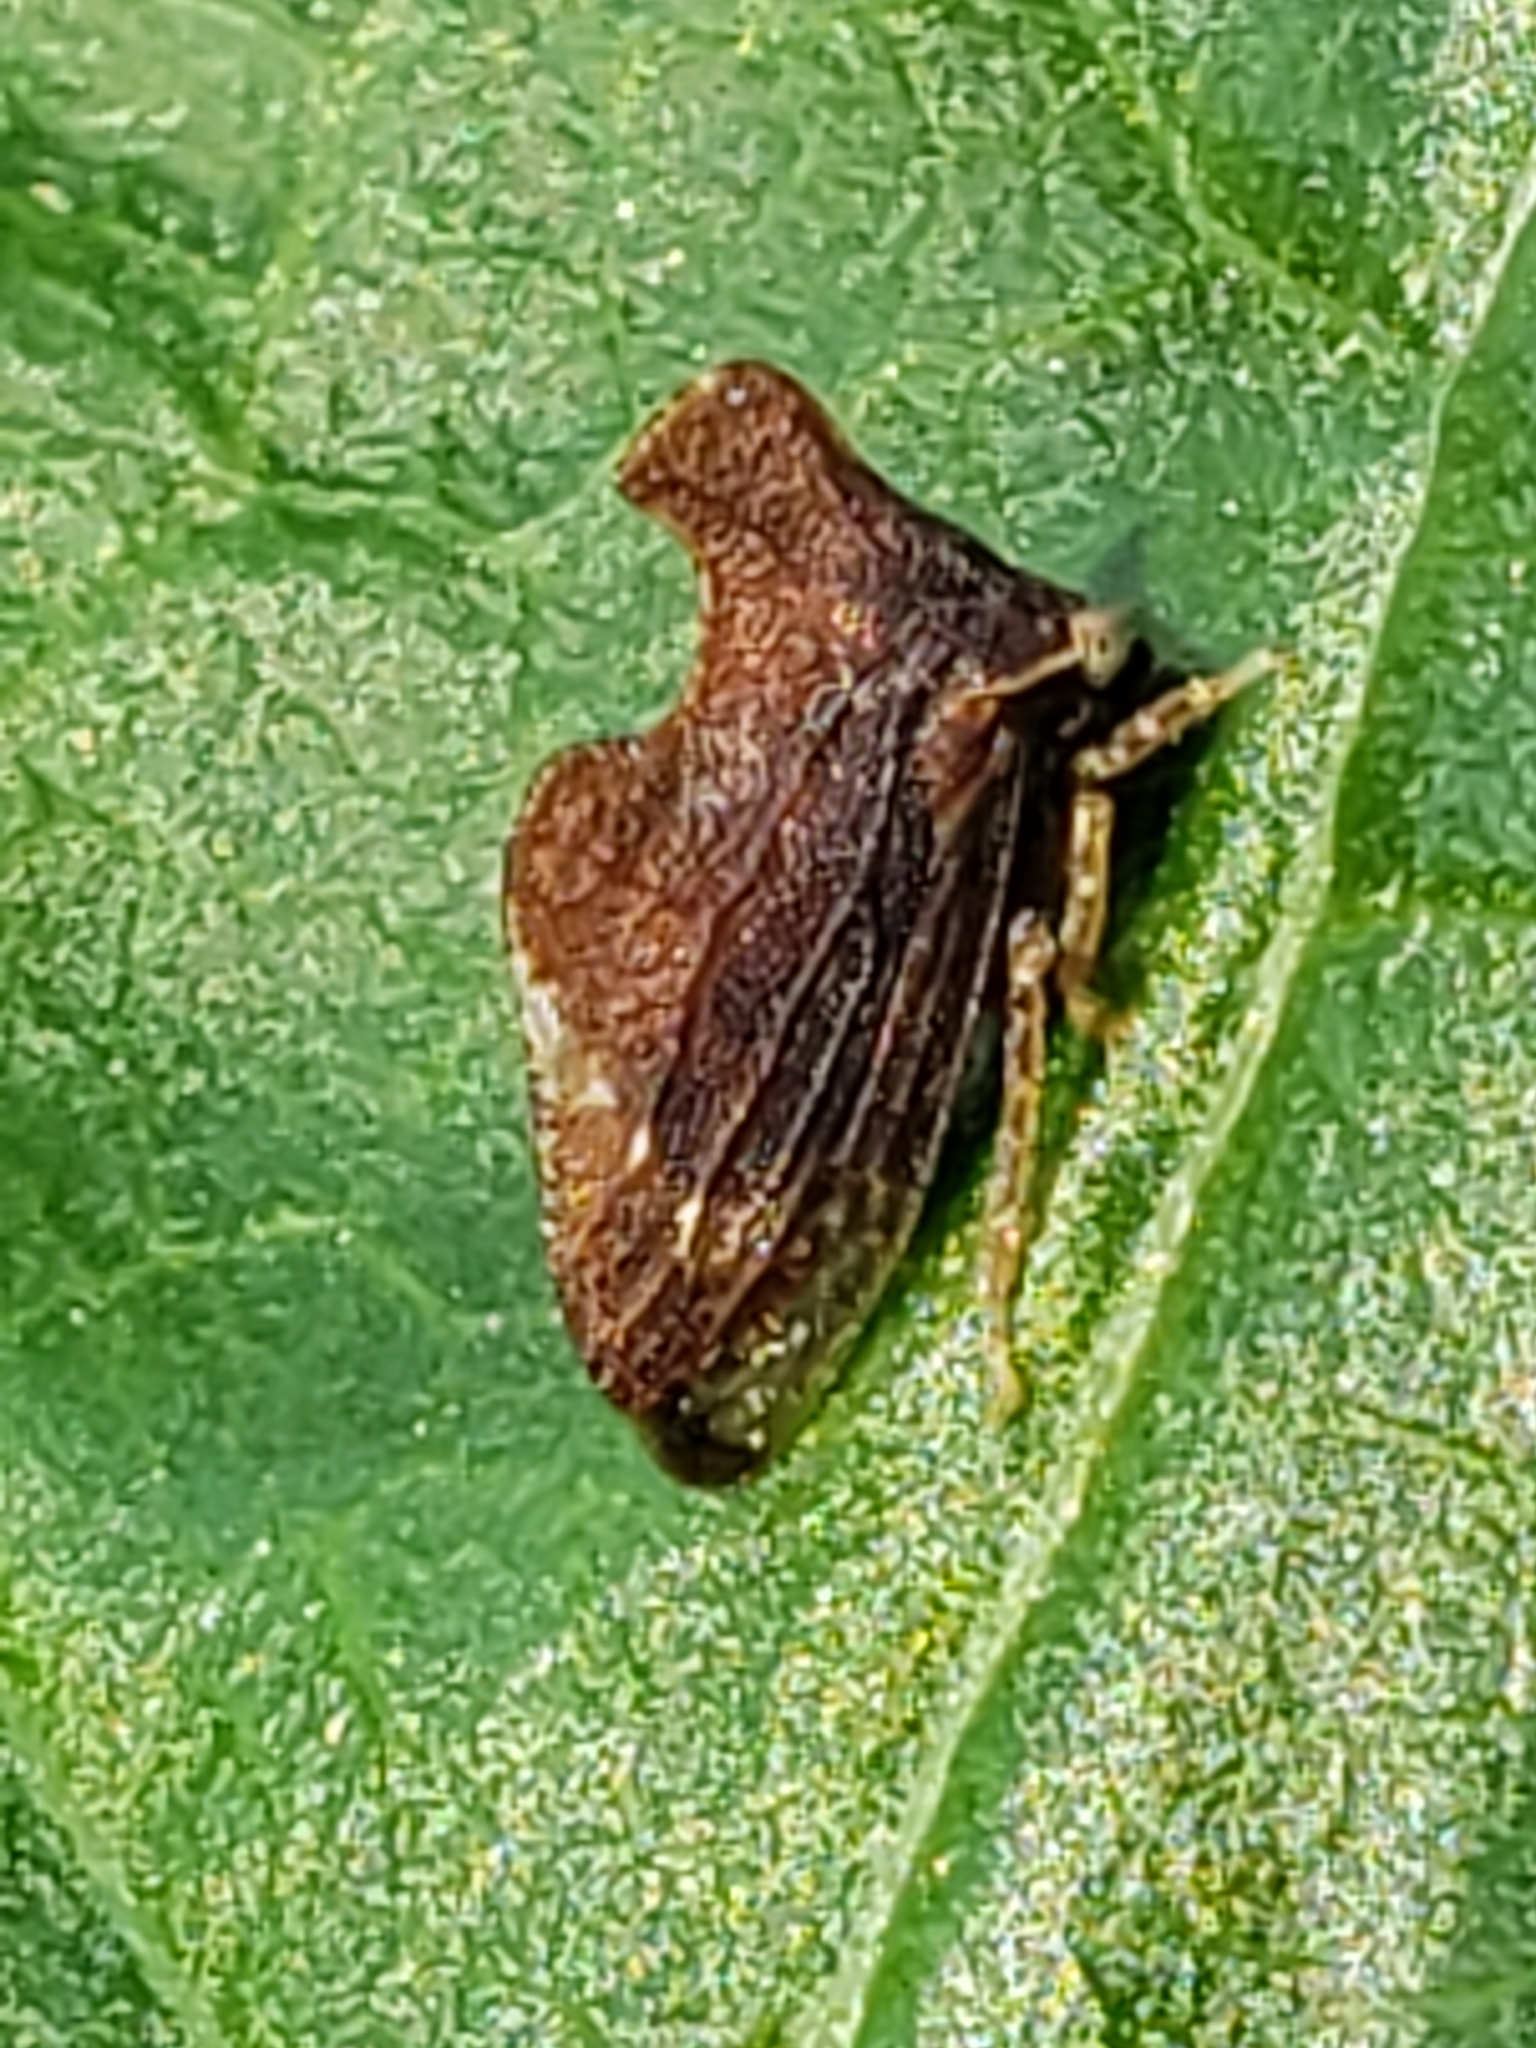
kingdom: Animalia
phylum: Arthropoda
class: Insecta
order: Hemiptera
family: Membracidae
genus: Entylia
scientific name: Entylia carinata
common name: Keeled treehopper
